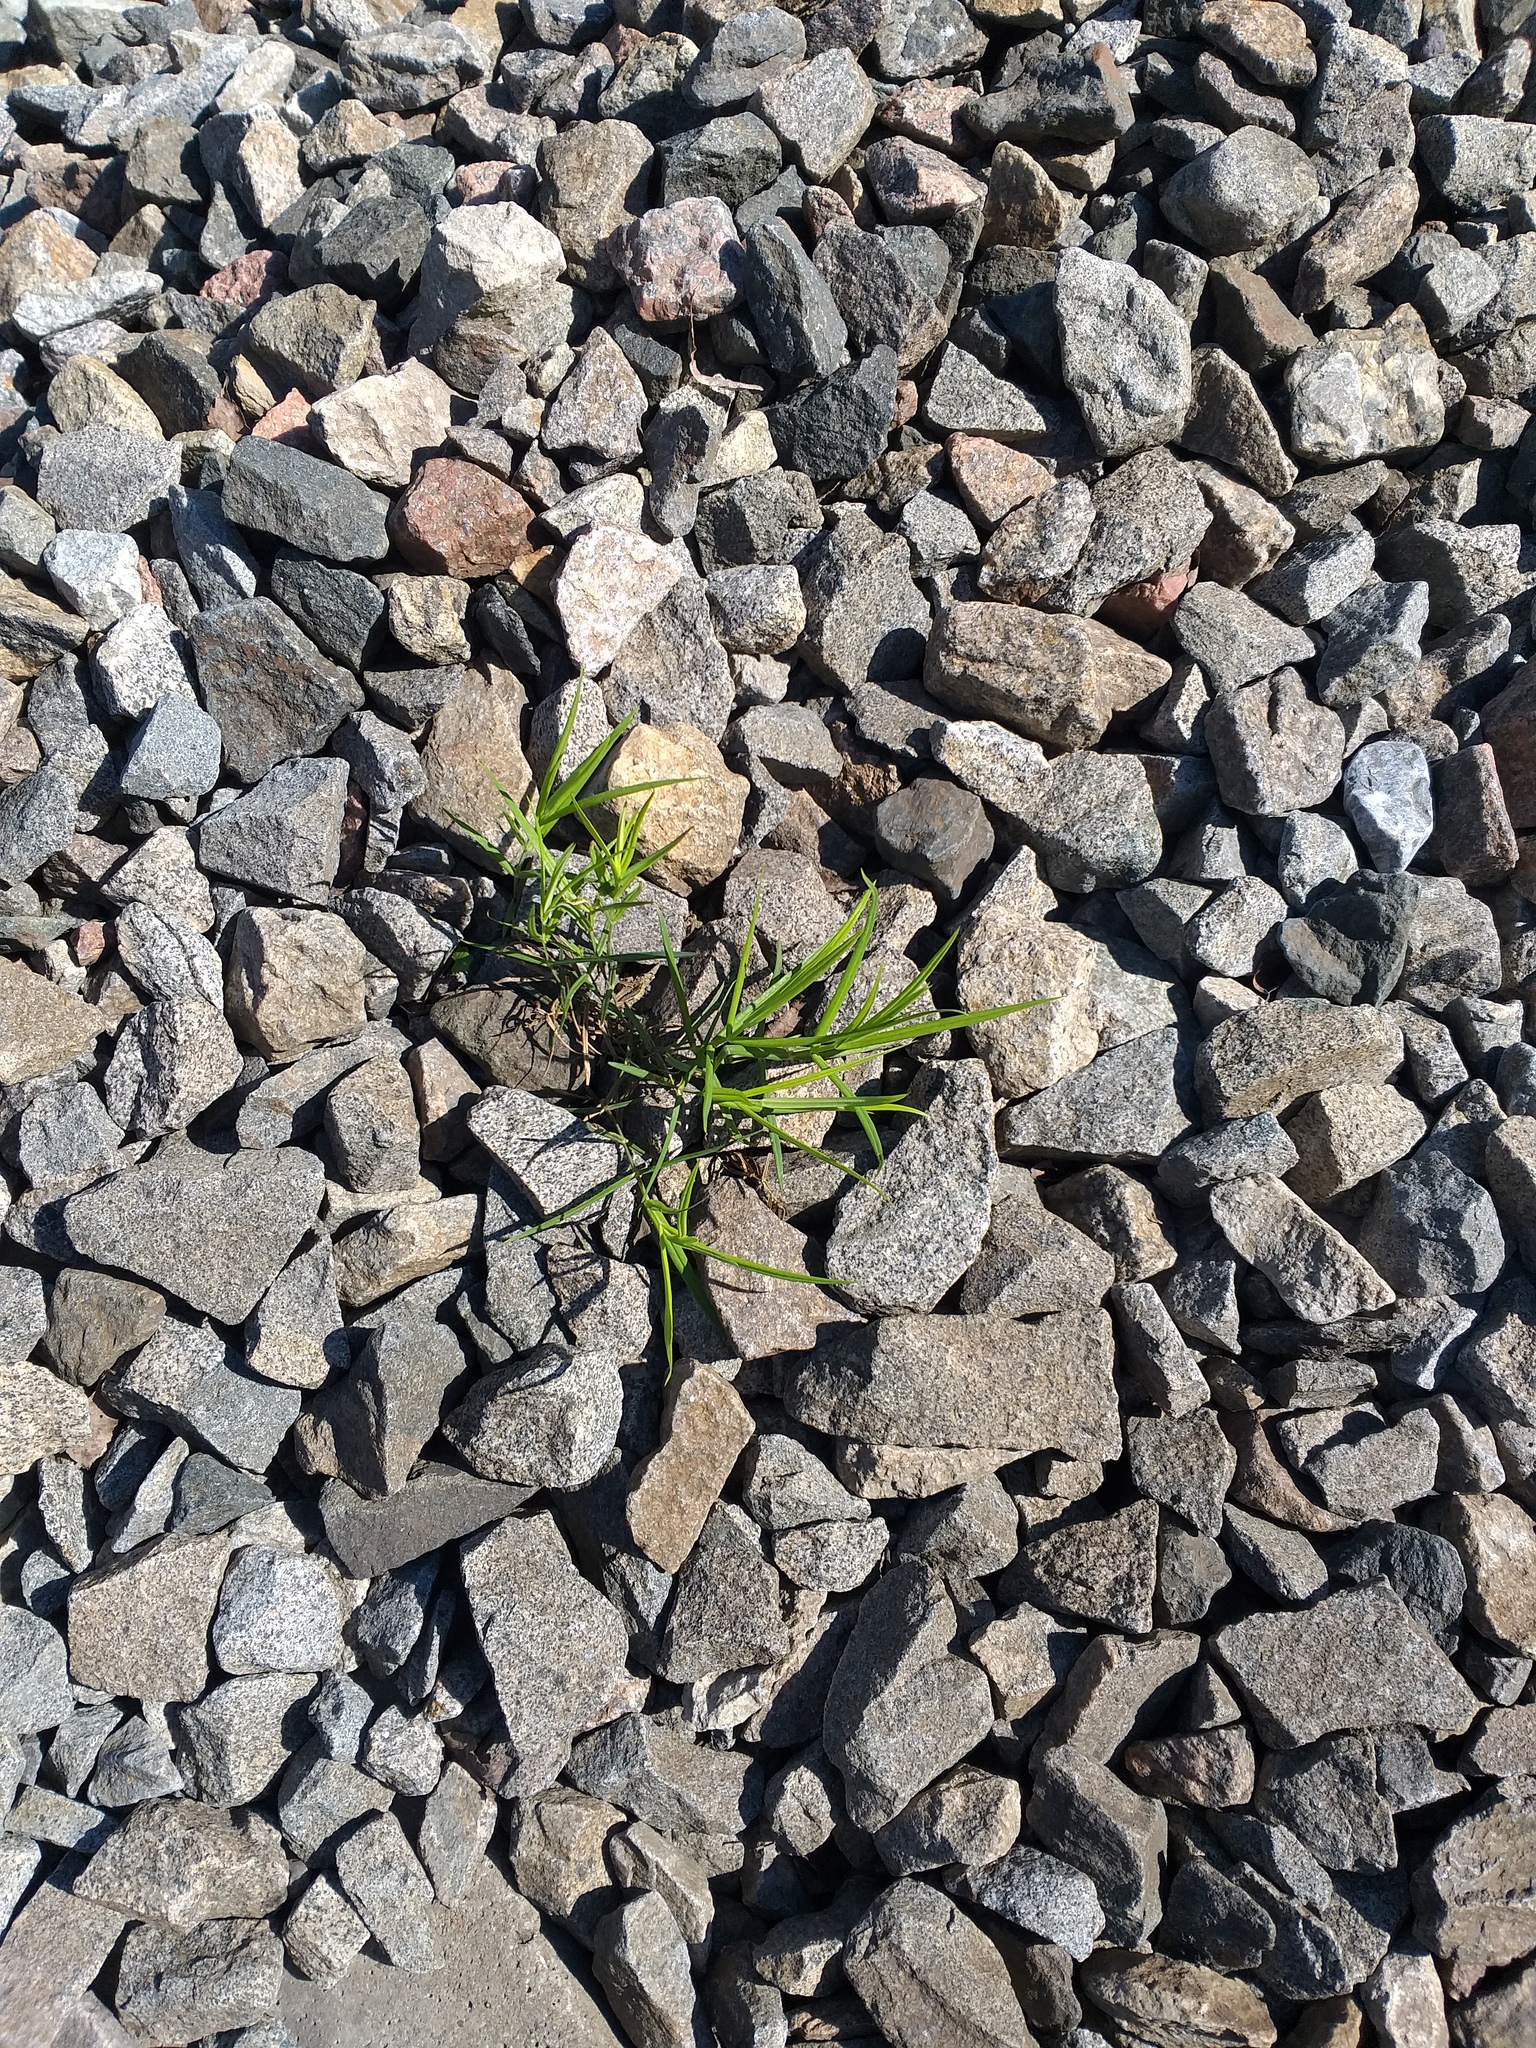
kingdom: Plantae
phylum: Tracheophyta
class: Magnoliopsida
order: Caryophyllales
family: Caryophyllaceae
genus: Rabelera
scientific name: Rabelera holostea
